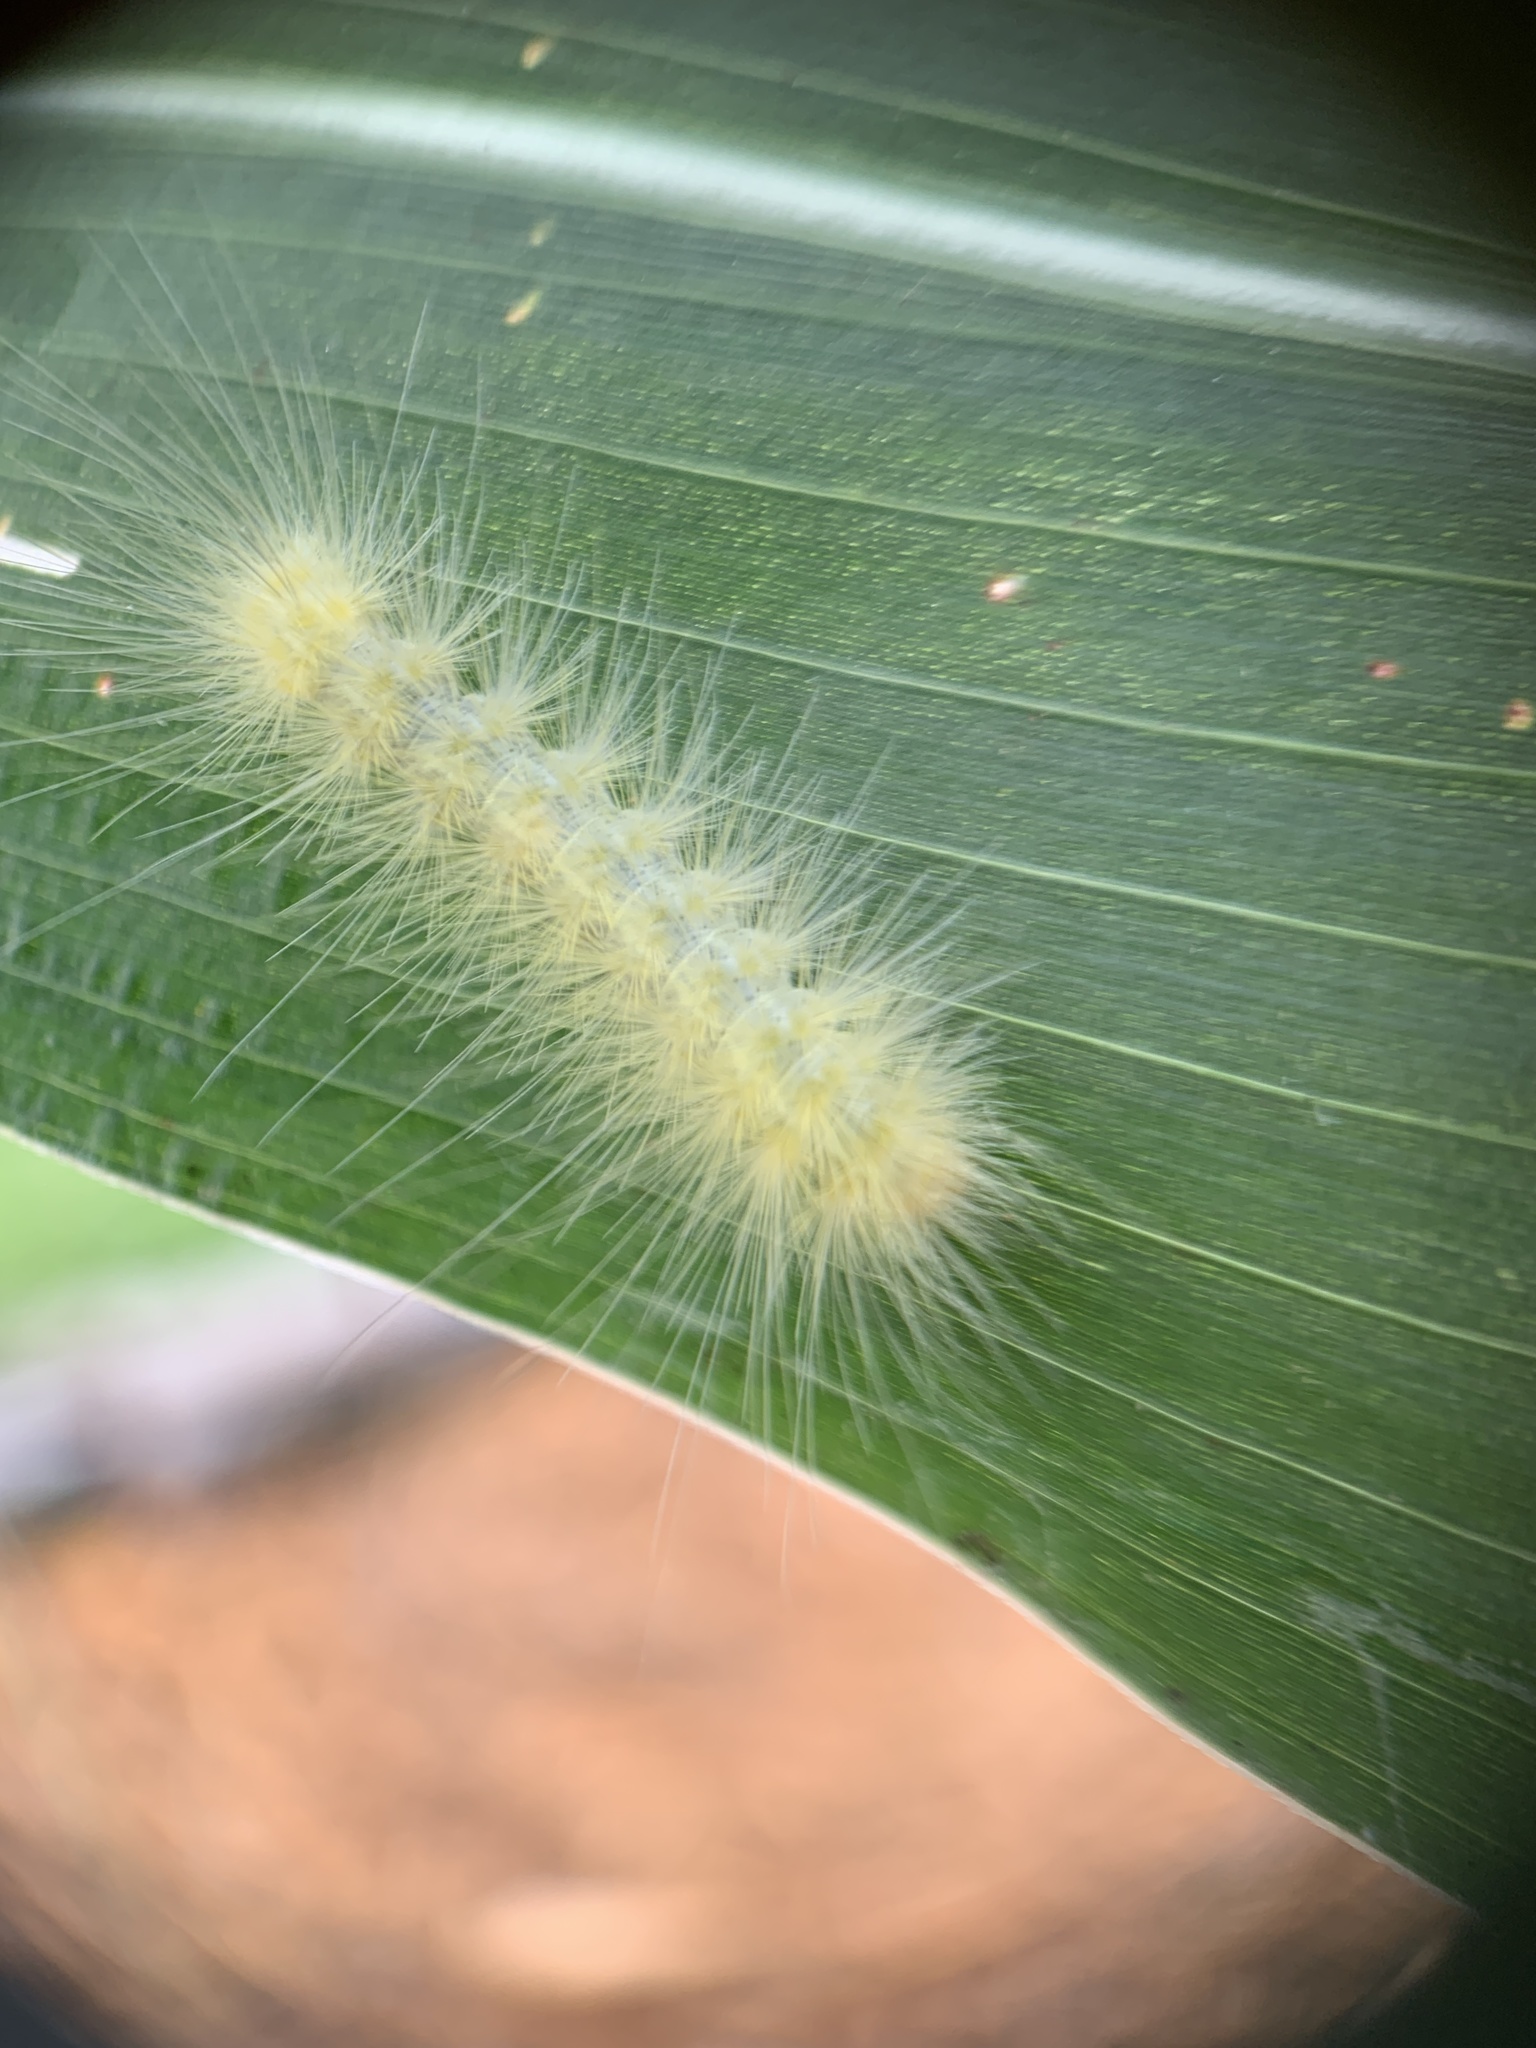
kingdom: Animalia
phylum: Arthropoda
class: Insecta
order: Lepidoptera
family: Erebidae
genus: Spilosoma
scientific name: Spilosoma virginica
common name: Virginia tiger moth
